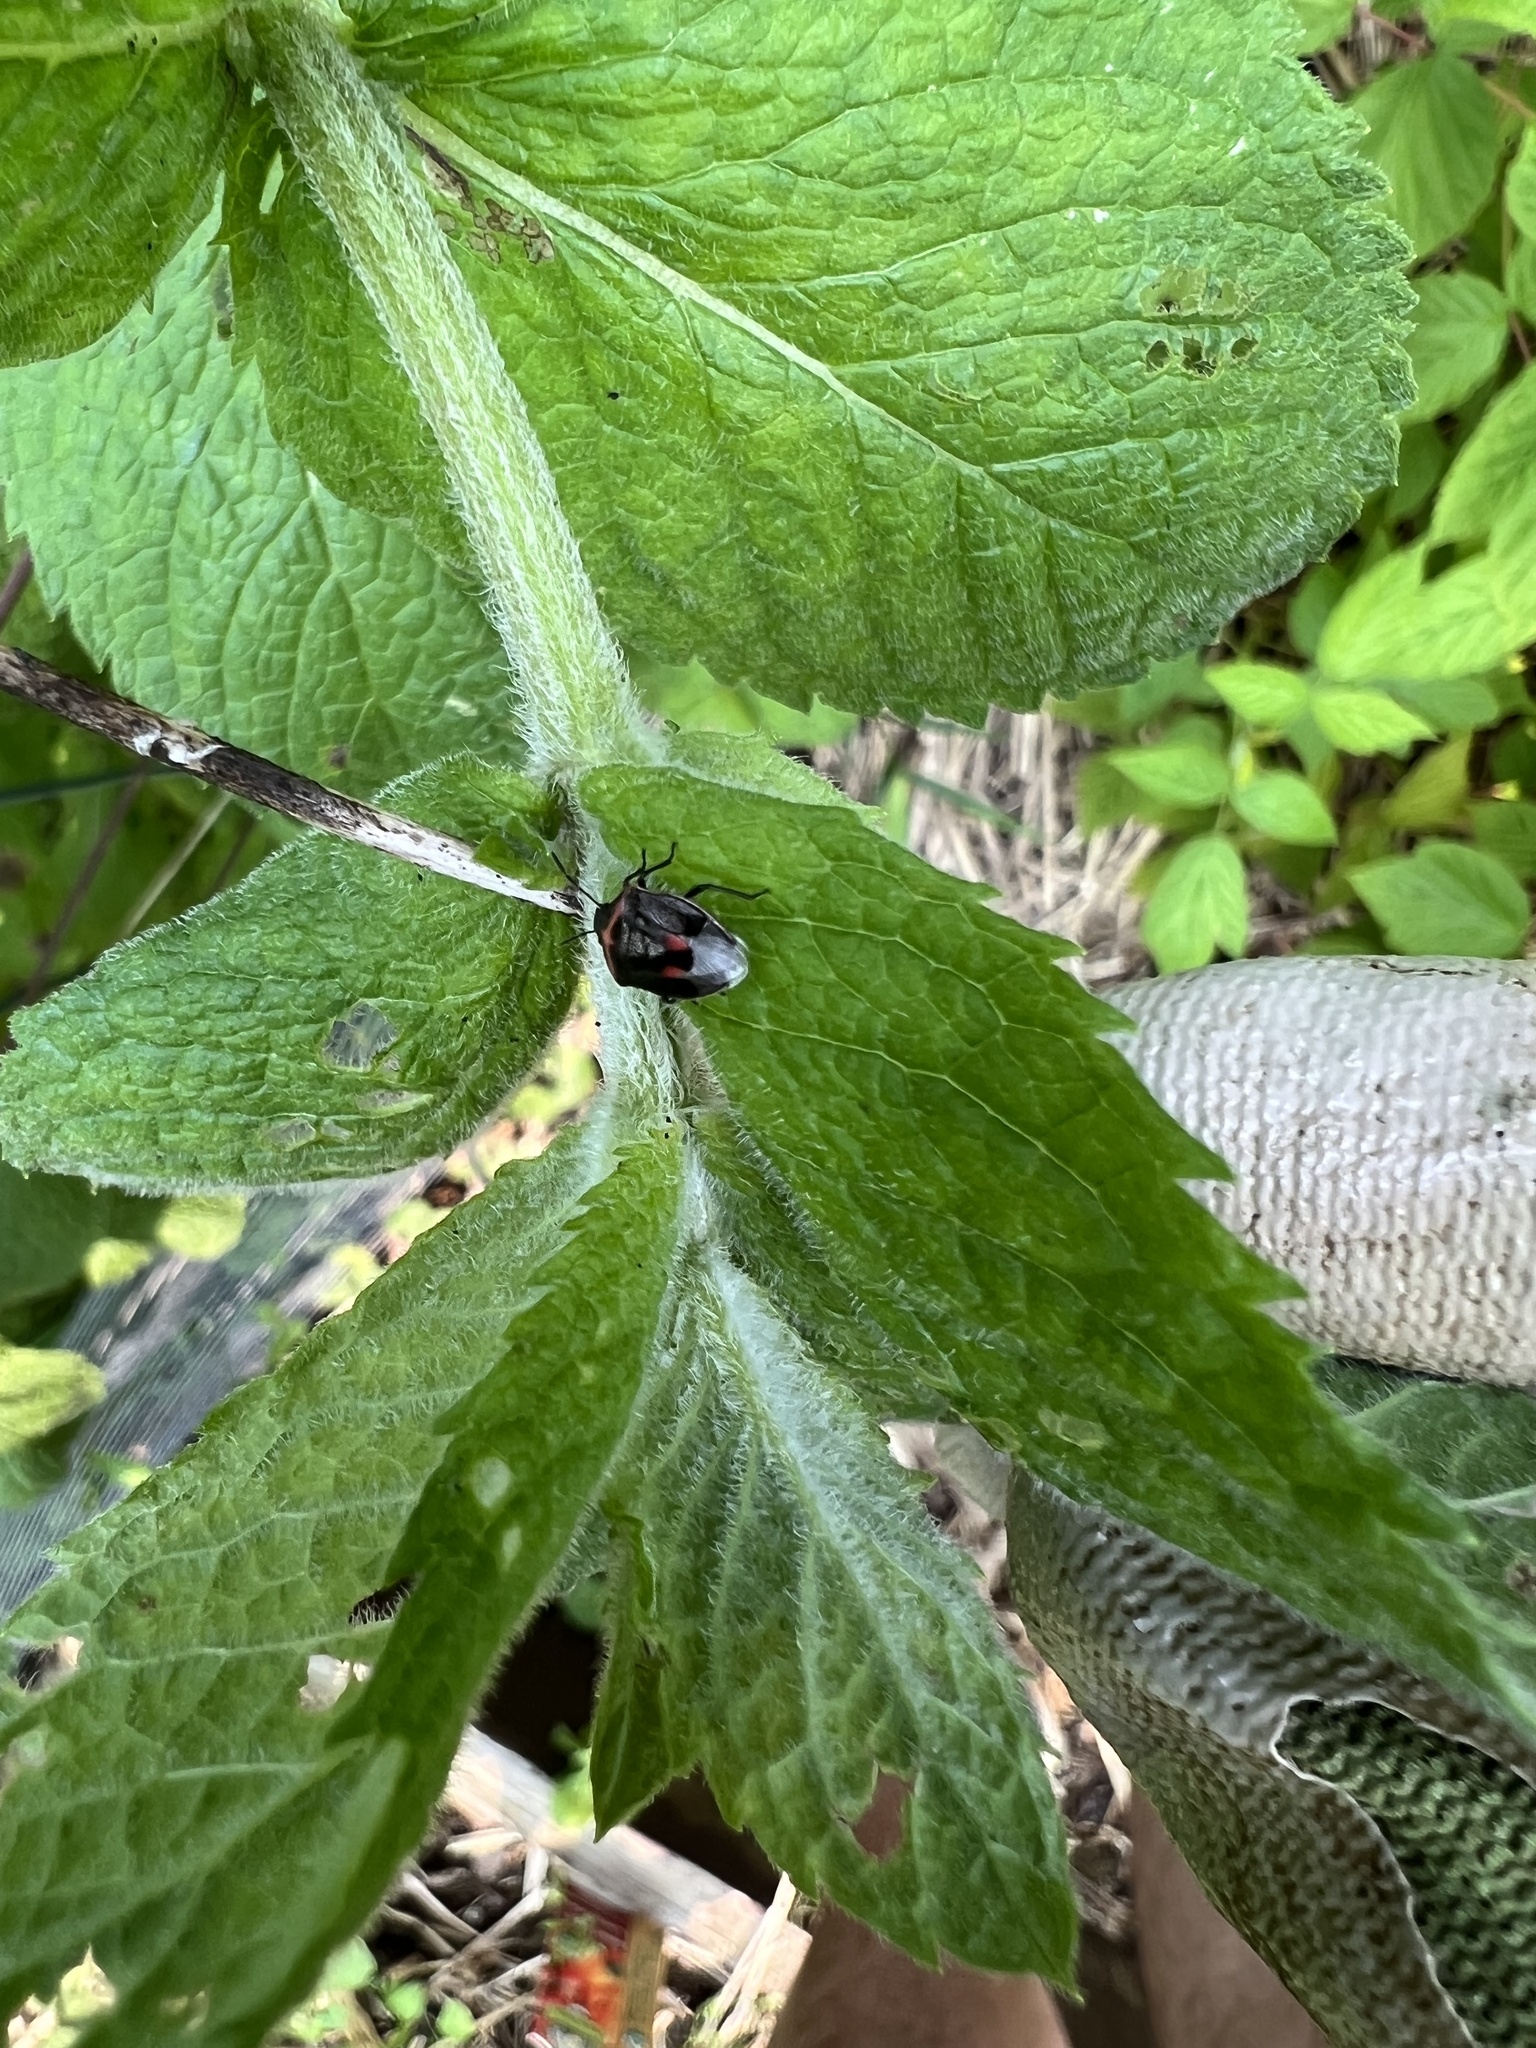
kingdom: Animalia
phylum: Arthropoda
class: Insecta
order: Hemiptera
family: Pentatomidae
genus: Cosmopepla
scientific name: Cosmopepla lintneriana
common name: Twice-stabbed stink bug
